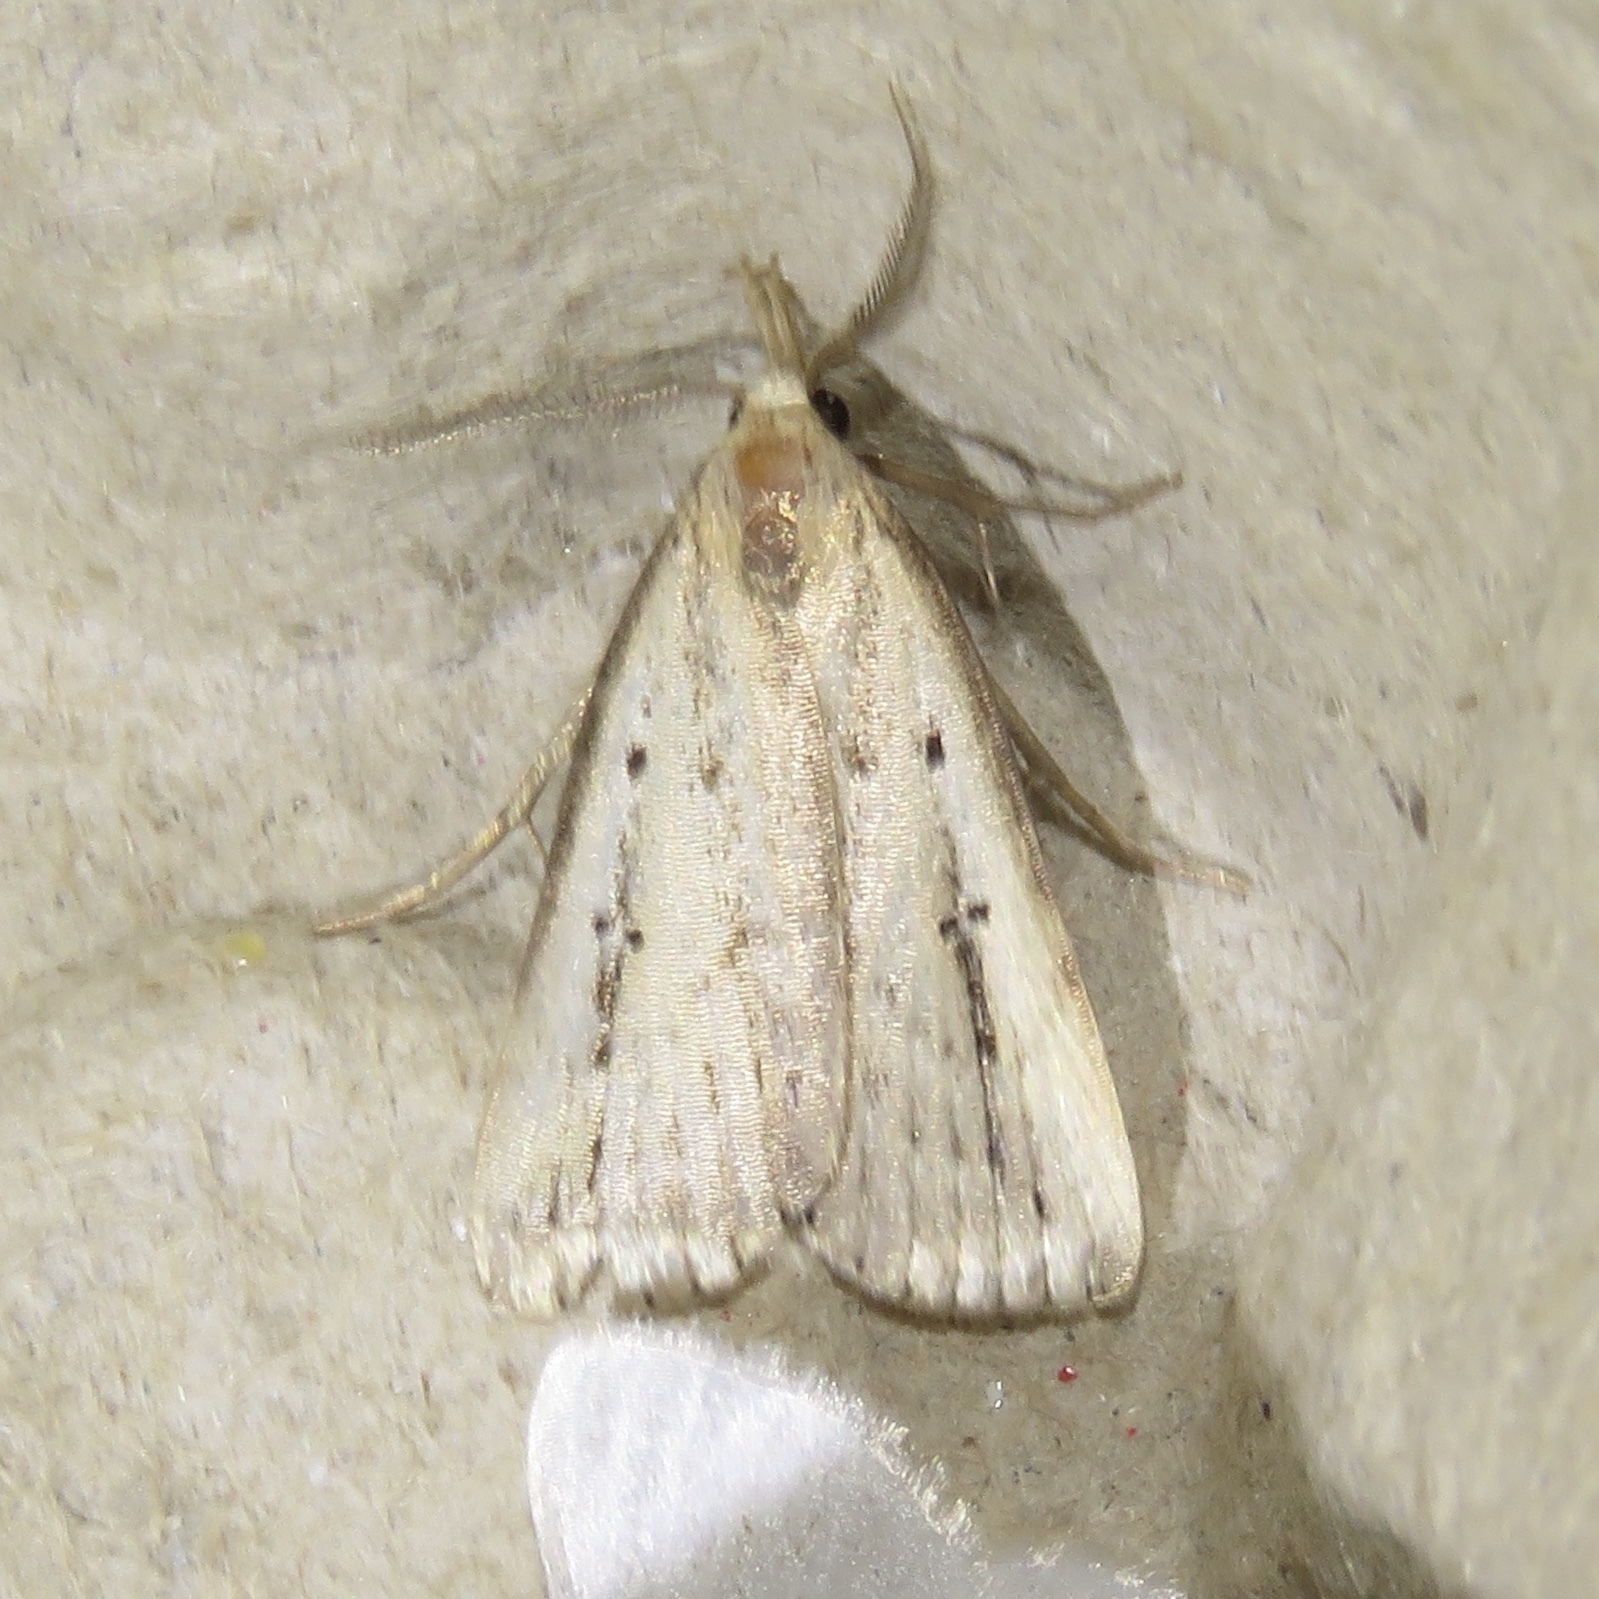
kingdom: Animalia
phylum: Arthropoda
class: Insecta
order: Lepidoptera
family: Erebidae
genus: Macrochilo
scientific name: Macrochilo orciferalis
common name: Bronzy owlet
